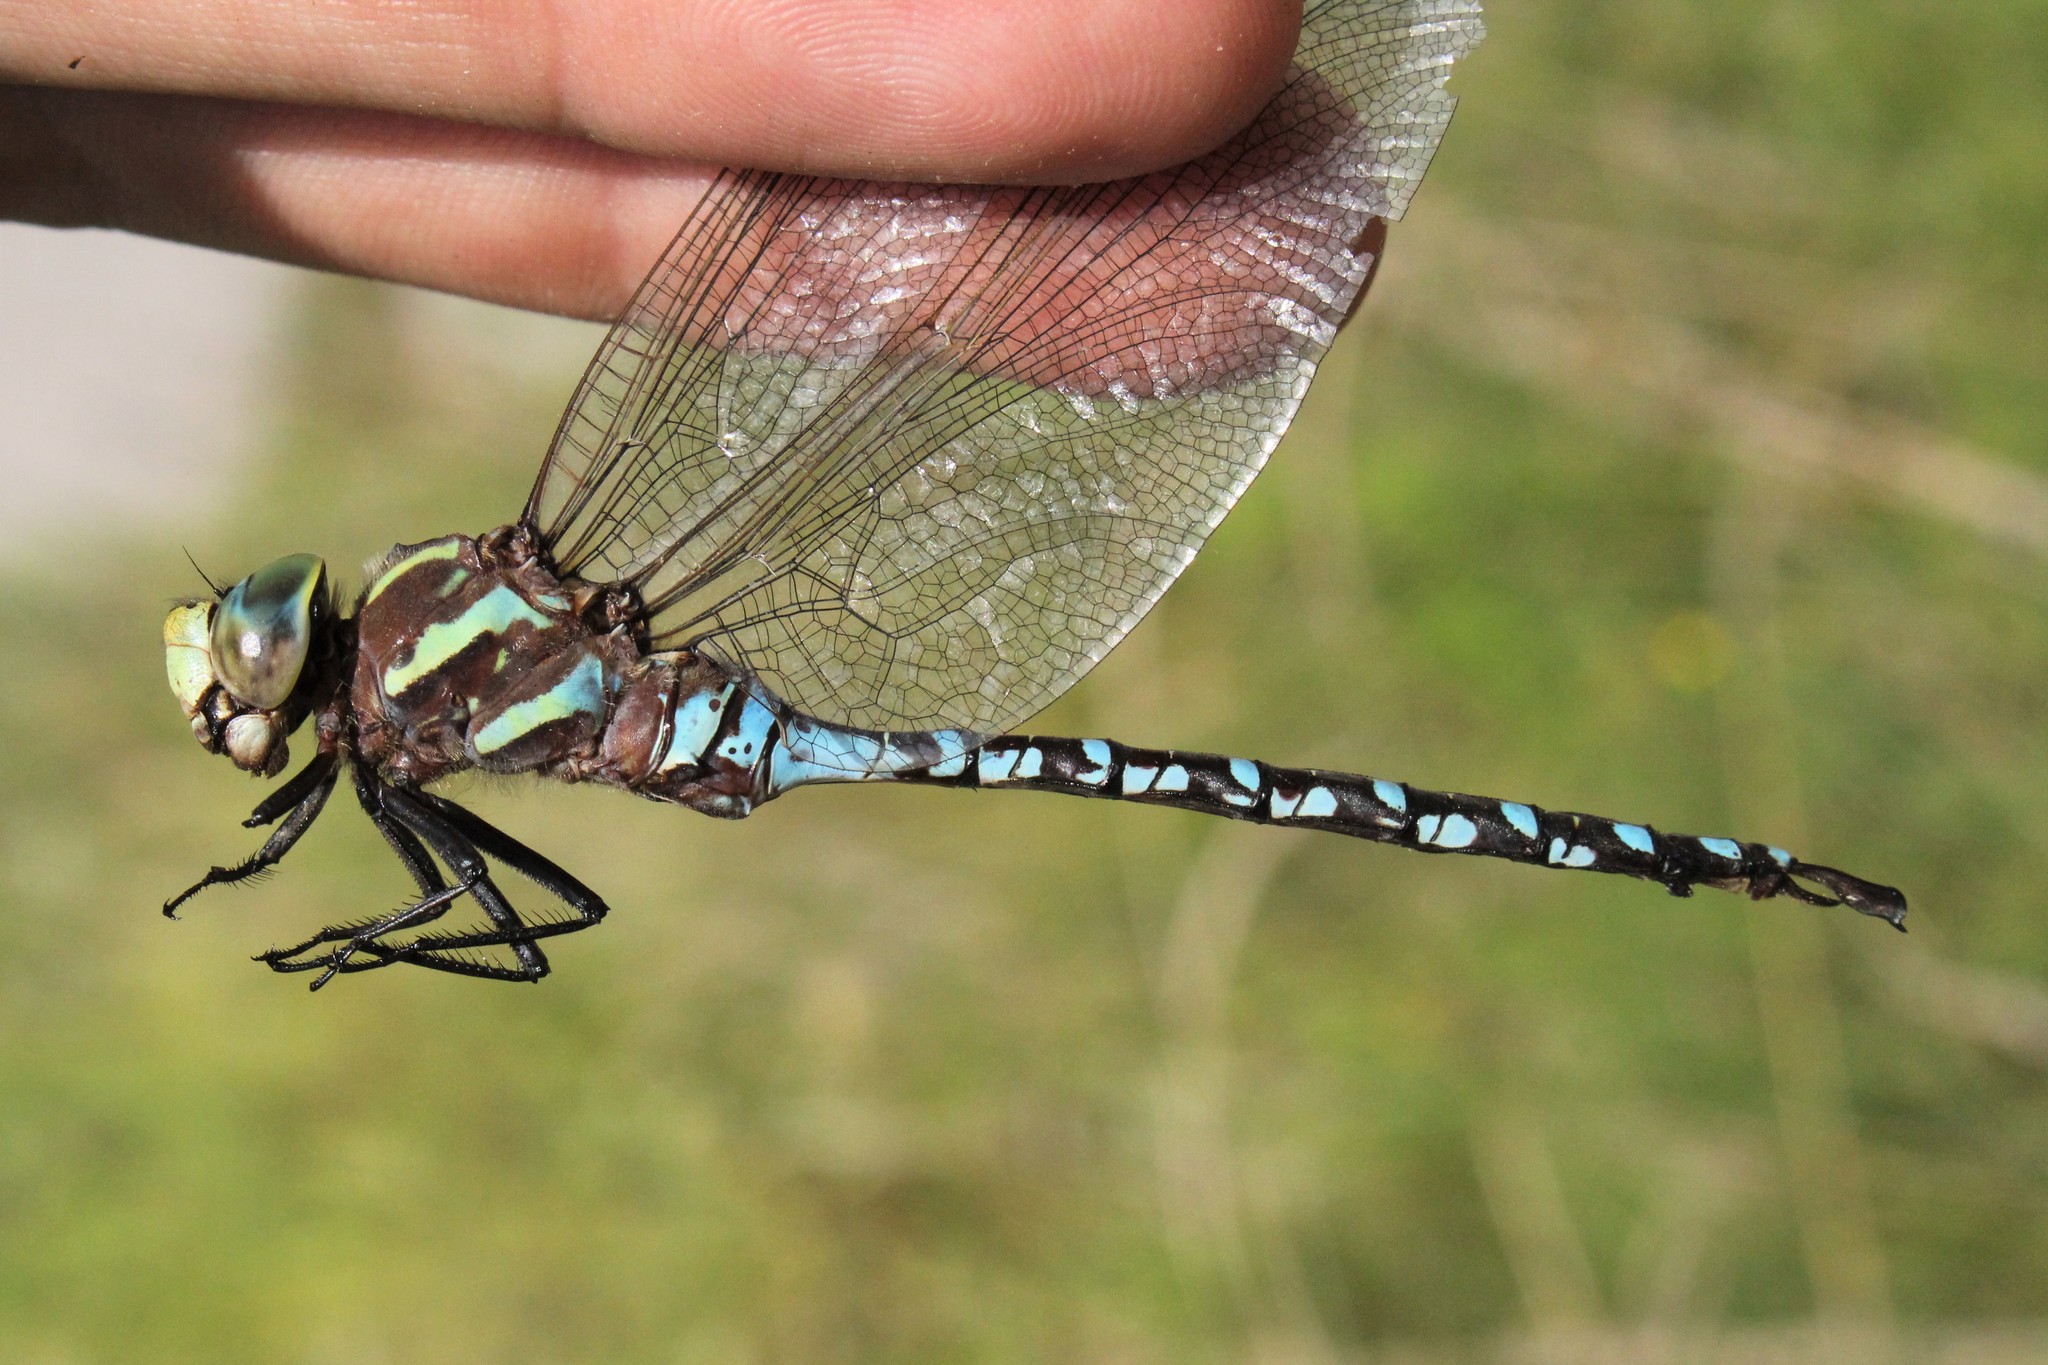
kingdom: Animalia
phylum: Arthropoda
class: Insecta
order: Odonata
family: Aeshnidae
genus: Aeshna
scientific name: Aeshna constricta
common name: Lance-tipped darner
